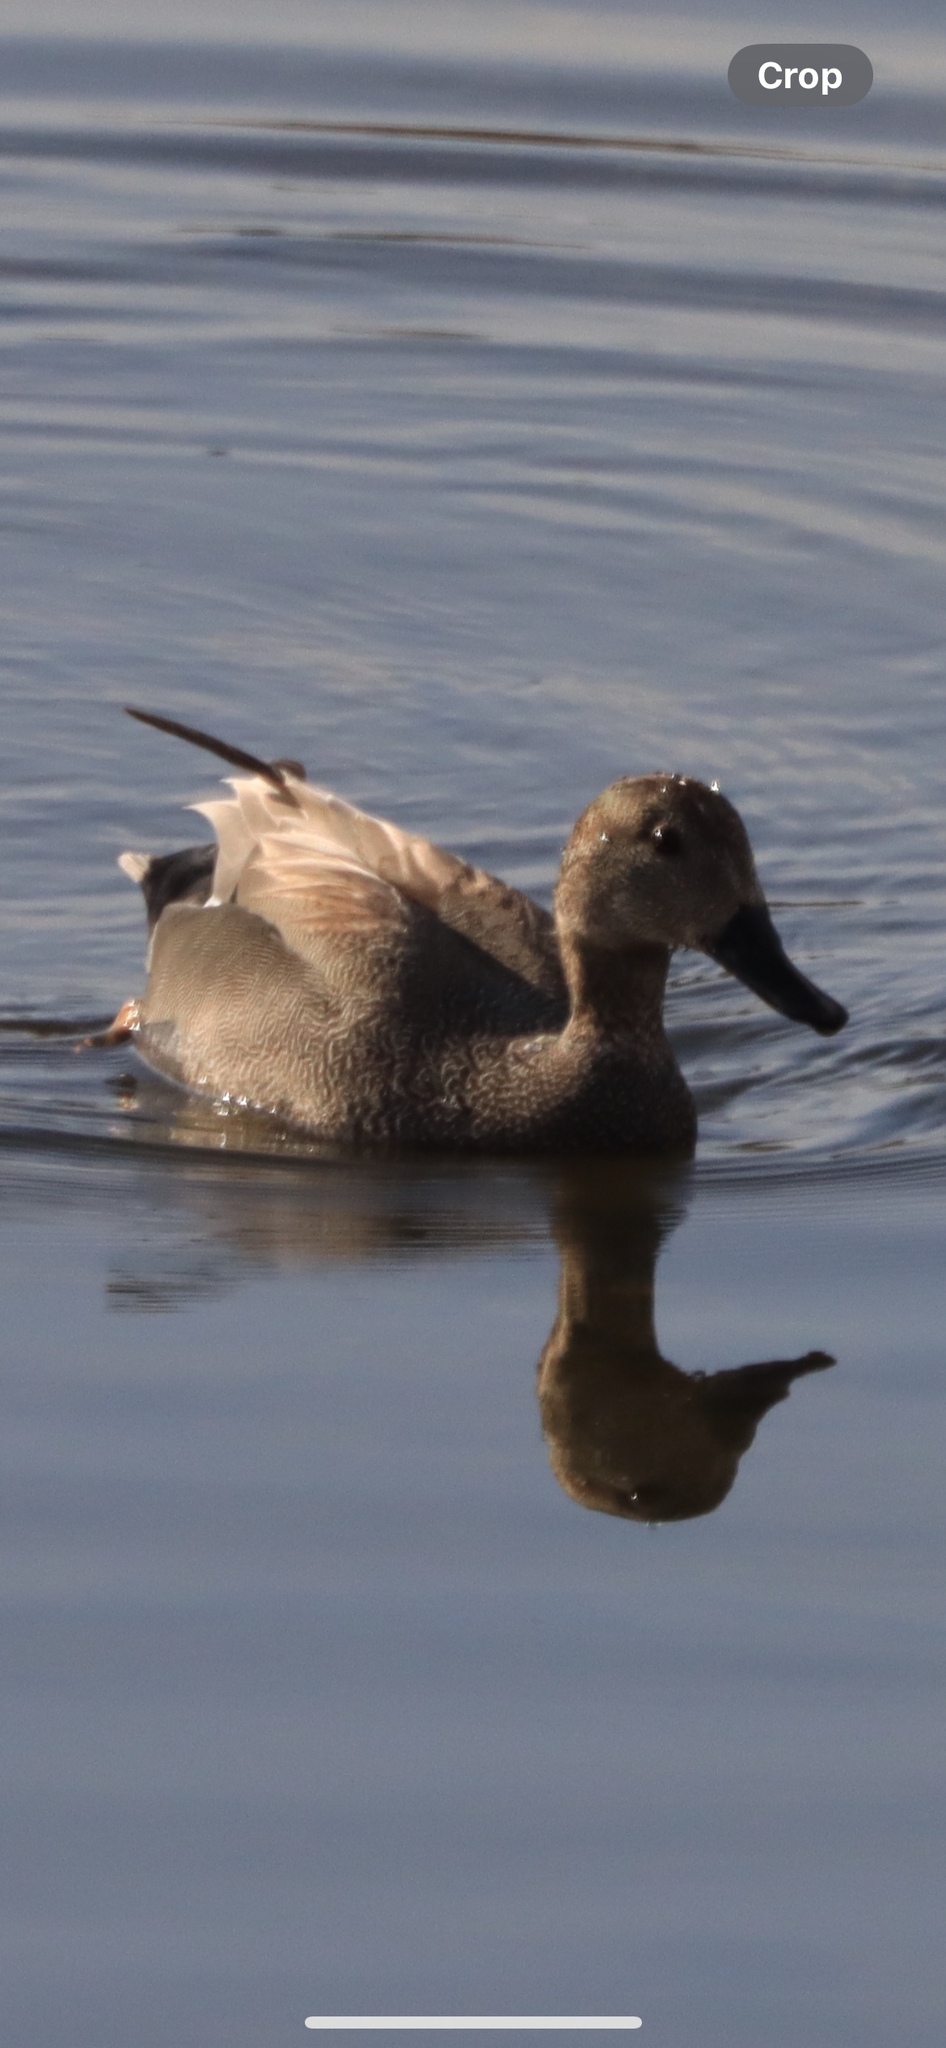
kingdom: Animalia
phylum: Chordata
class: Aves
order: Anseriformes
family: Anatidae
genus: Mareca
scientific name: Mareca strepera
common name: Gadwall
